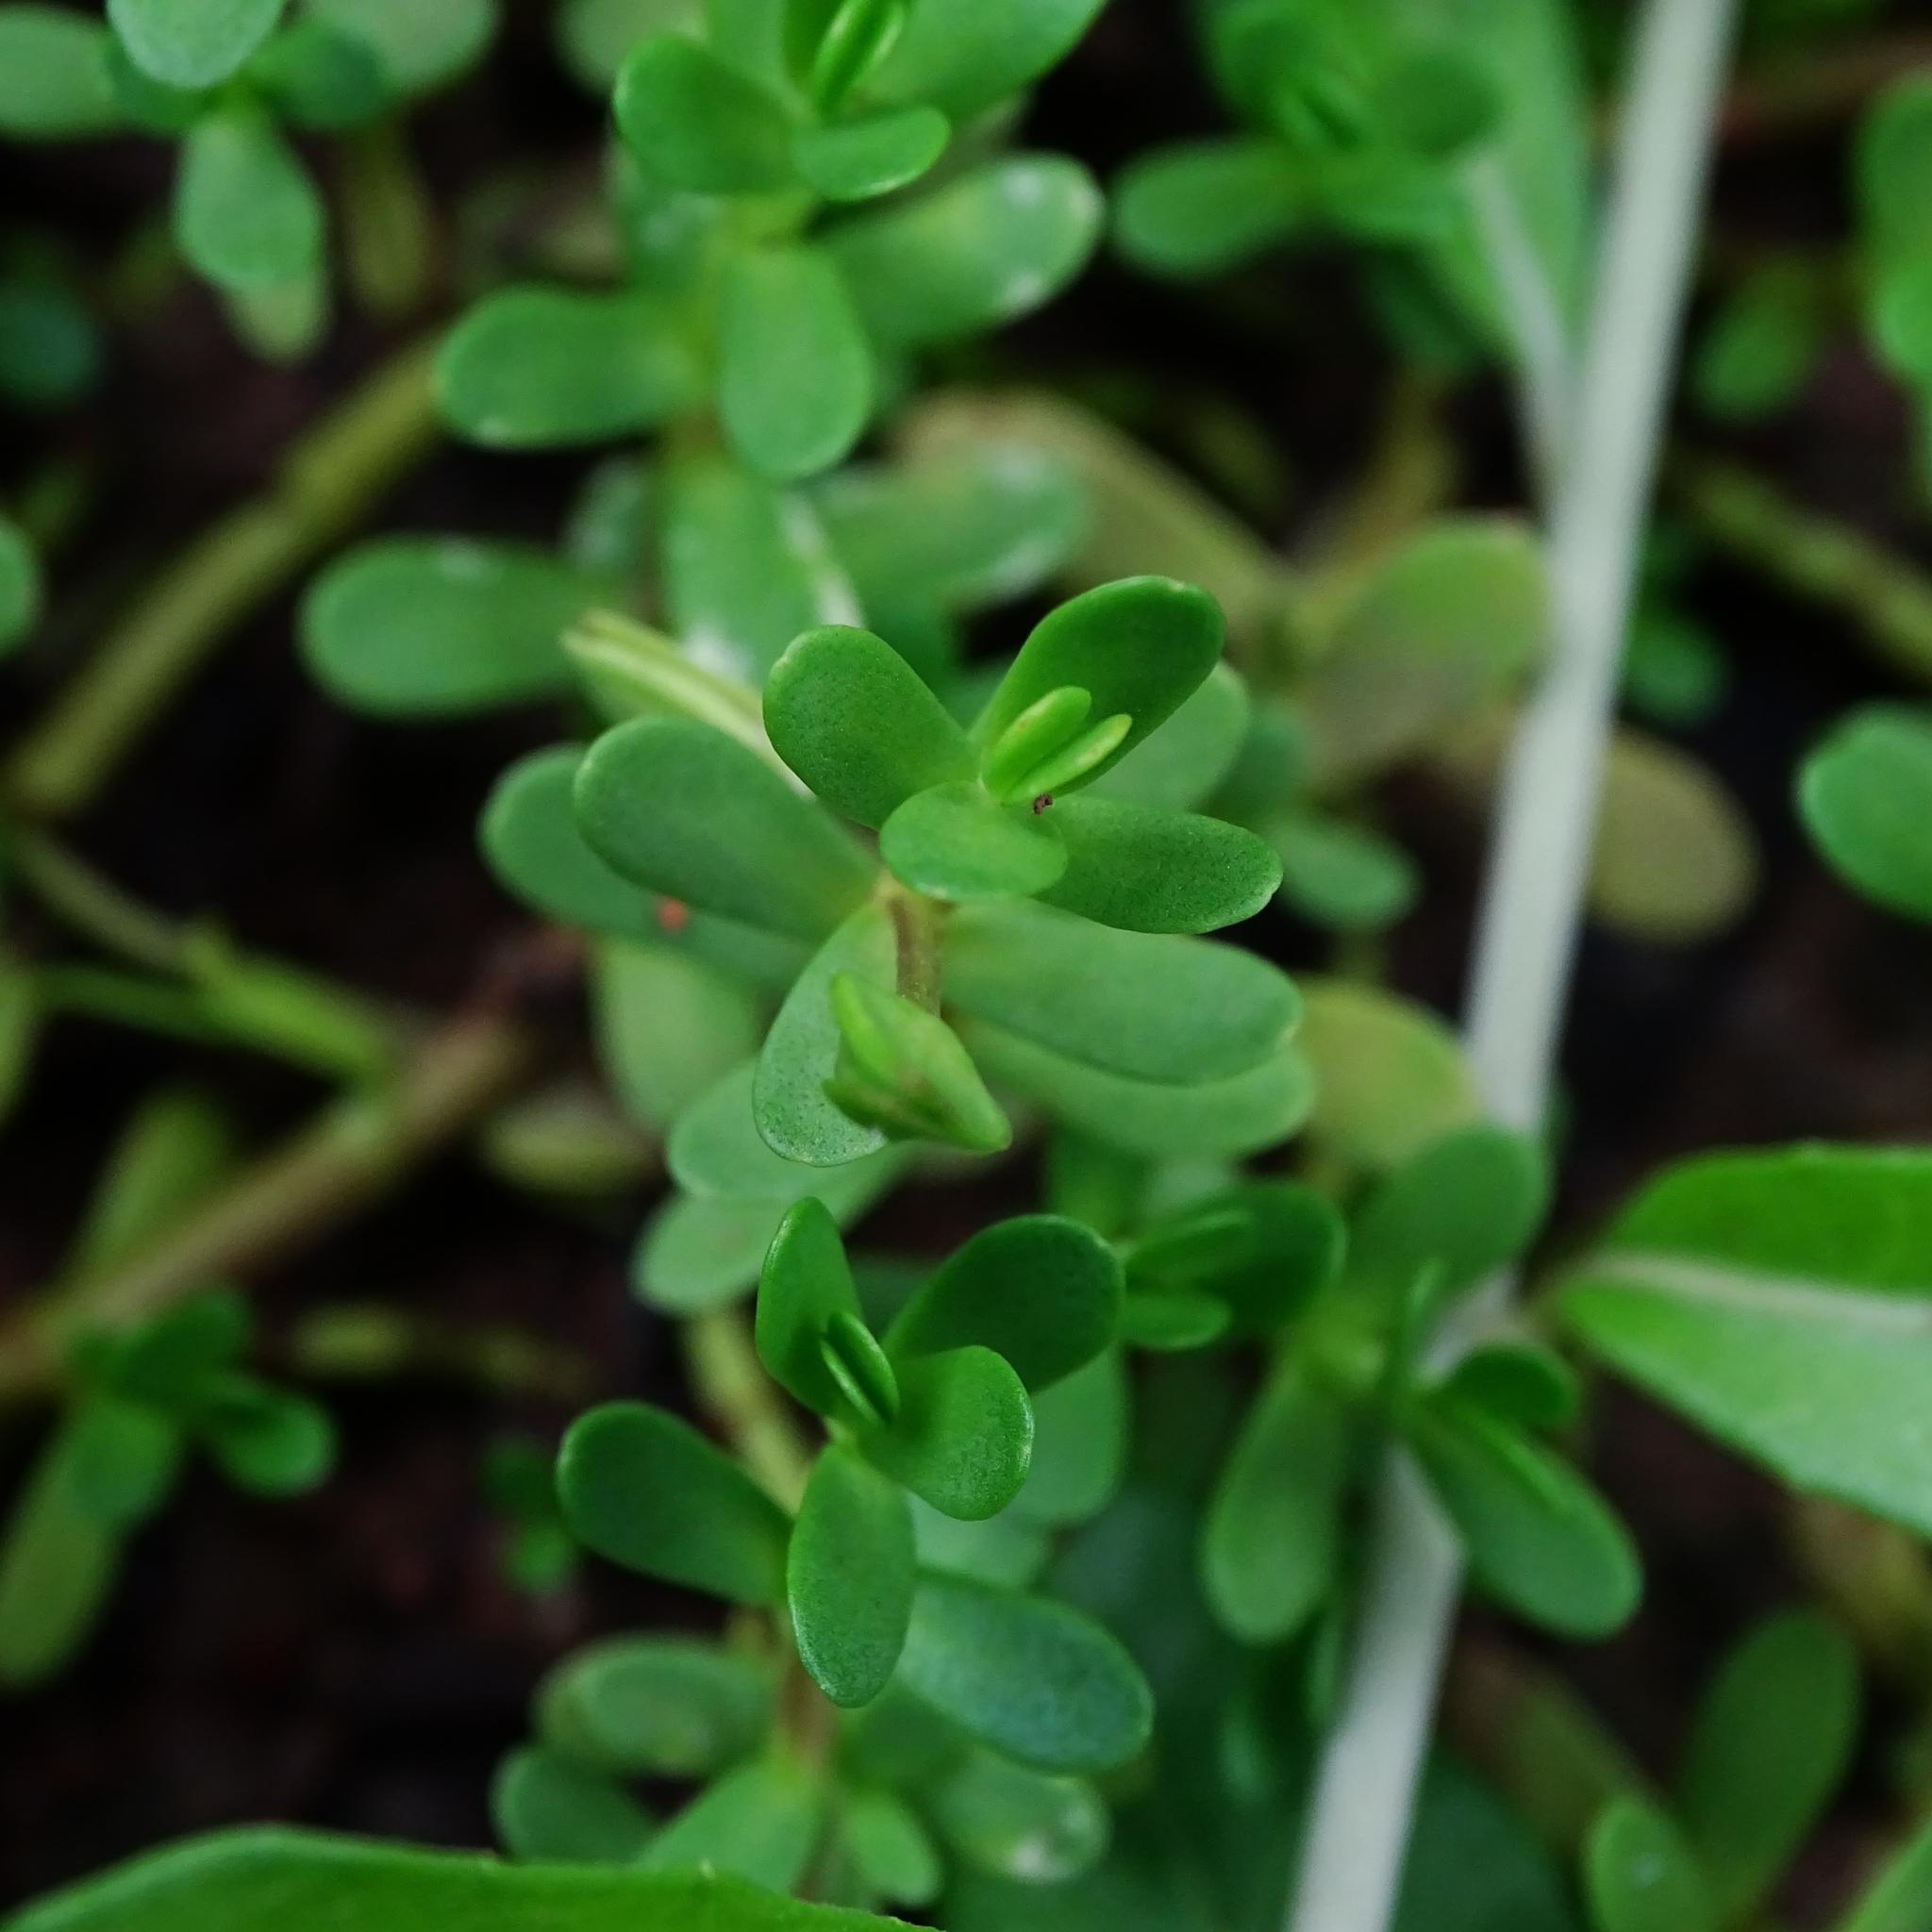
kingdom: Plantae
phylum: Tracheophyta
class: Magnoliopsida
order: Lamiales
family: Plantaginaceae
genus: Bacopa
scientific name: Bacopa monnieri
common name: Indian-pennywort
